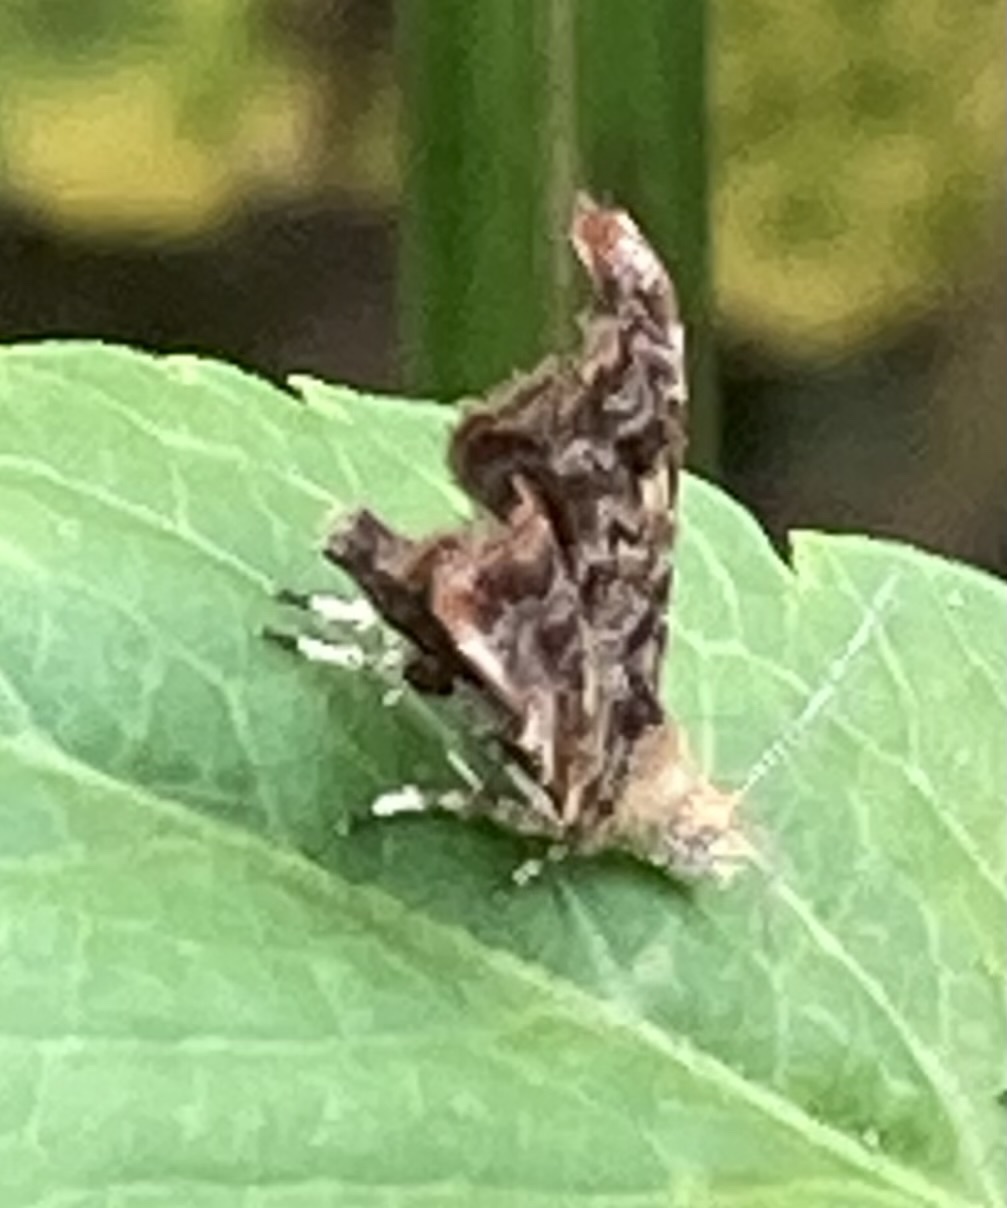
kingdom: Animalia
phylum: Arthropoda
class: Insecta
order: Lepidoptera
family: Choreutidae
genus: Choreutis
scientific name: Choreutis sexfasciella
